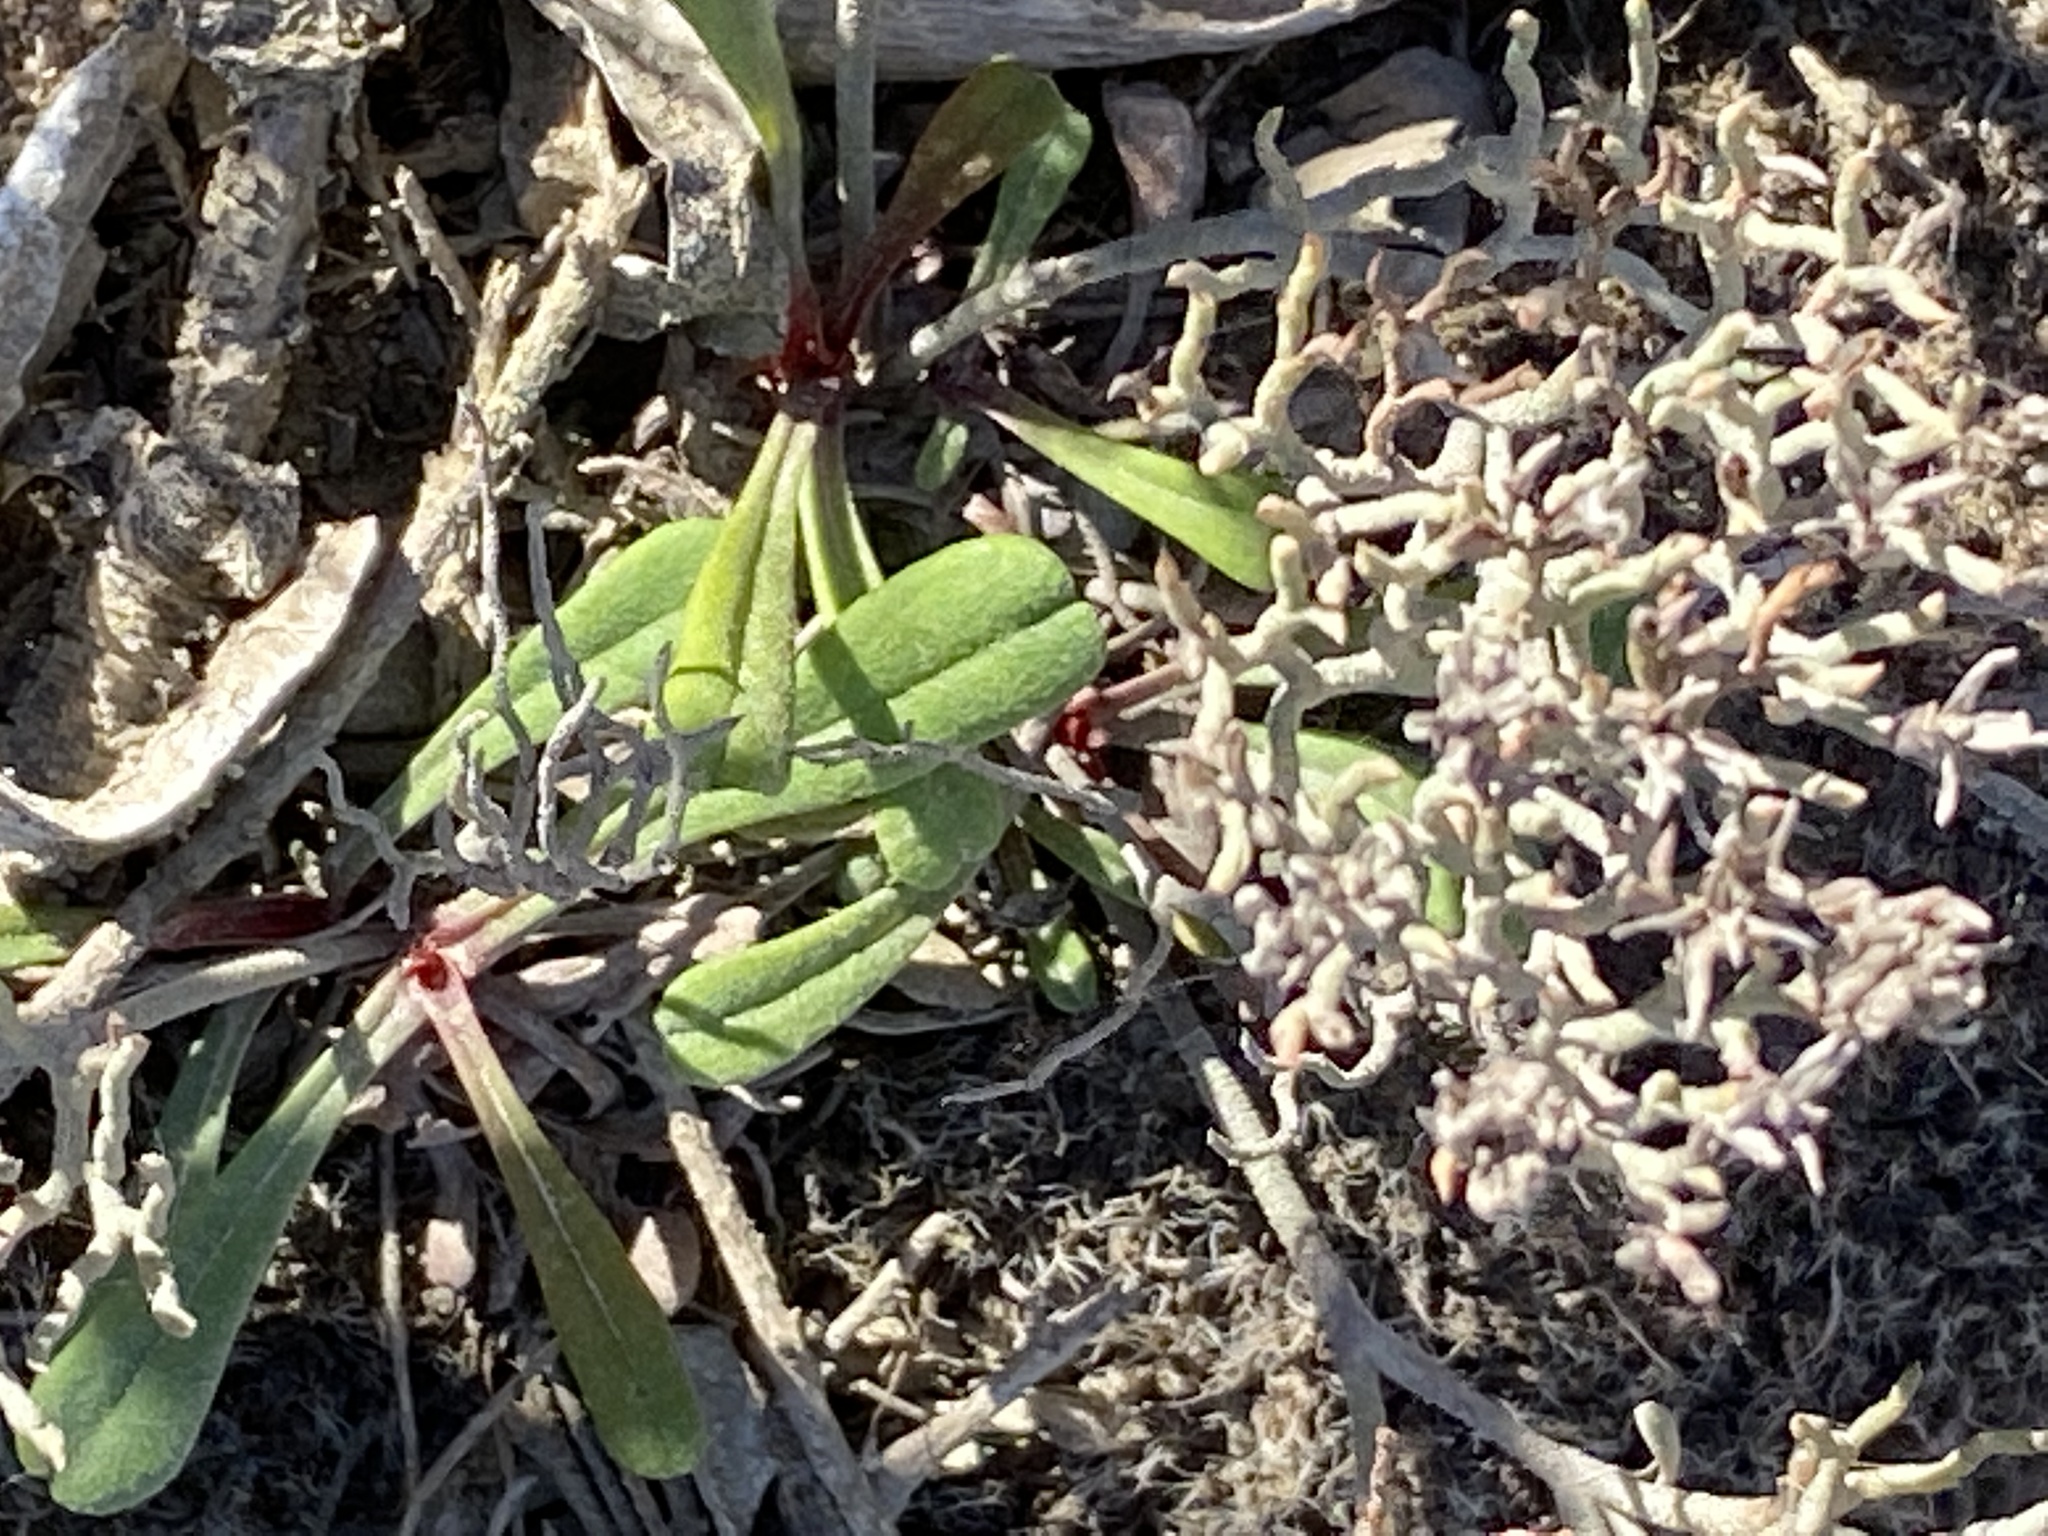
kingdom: Plantae
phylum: Tracheophyta
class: Magnoliopsida
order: Caryophyllales
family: Plumbaginaceae
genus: Limonium
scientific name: Limonium scabrum
